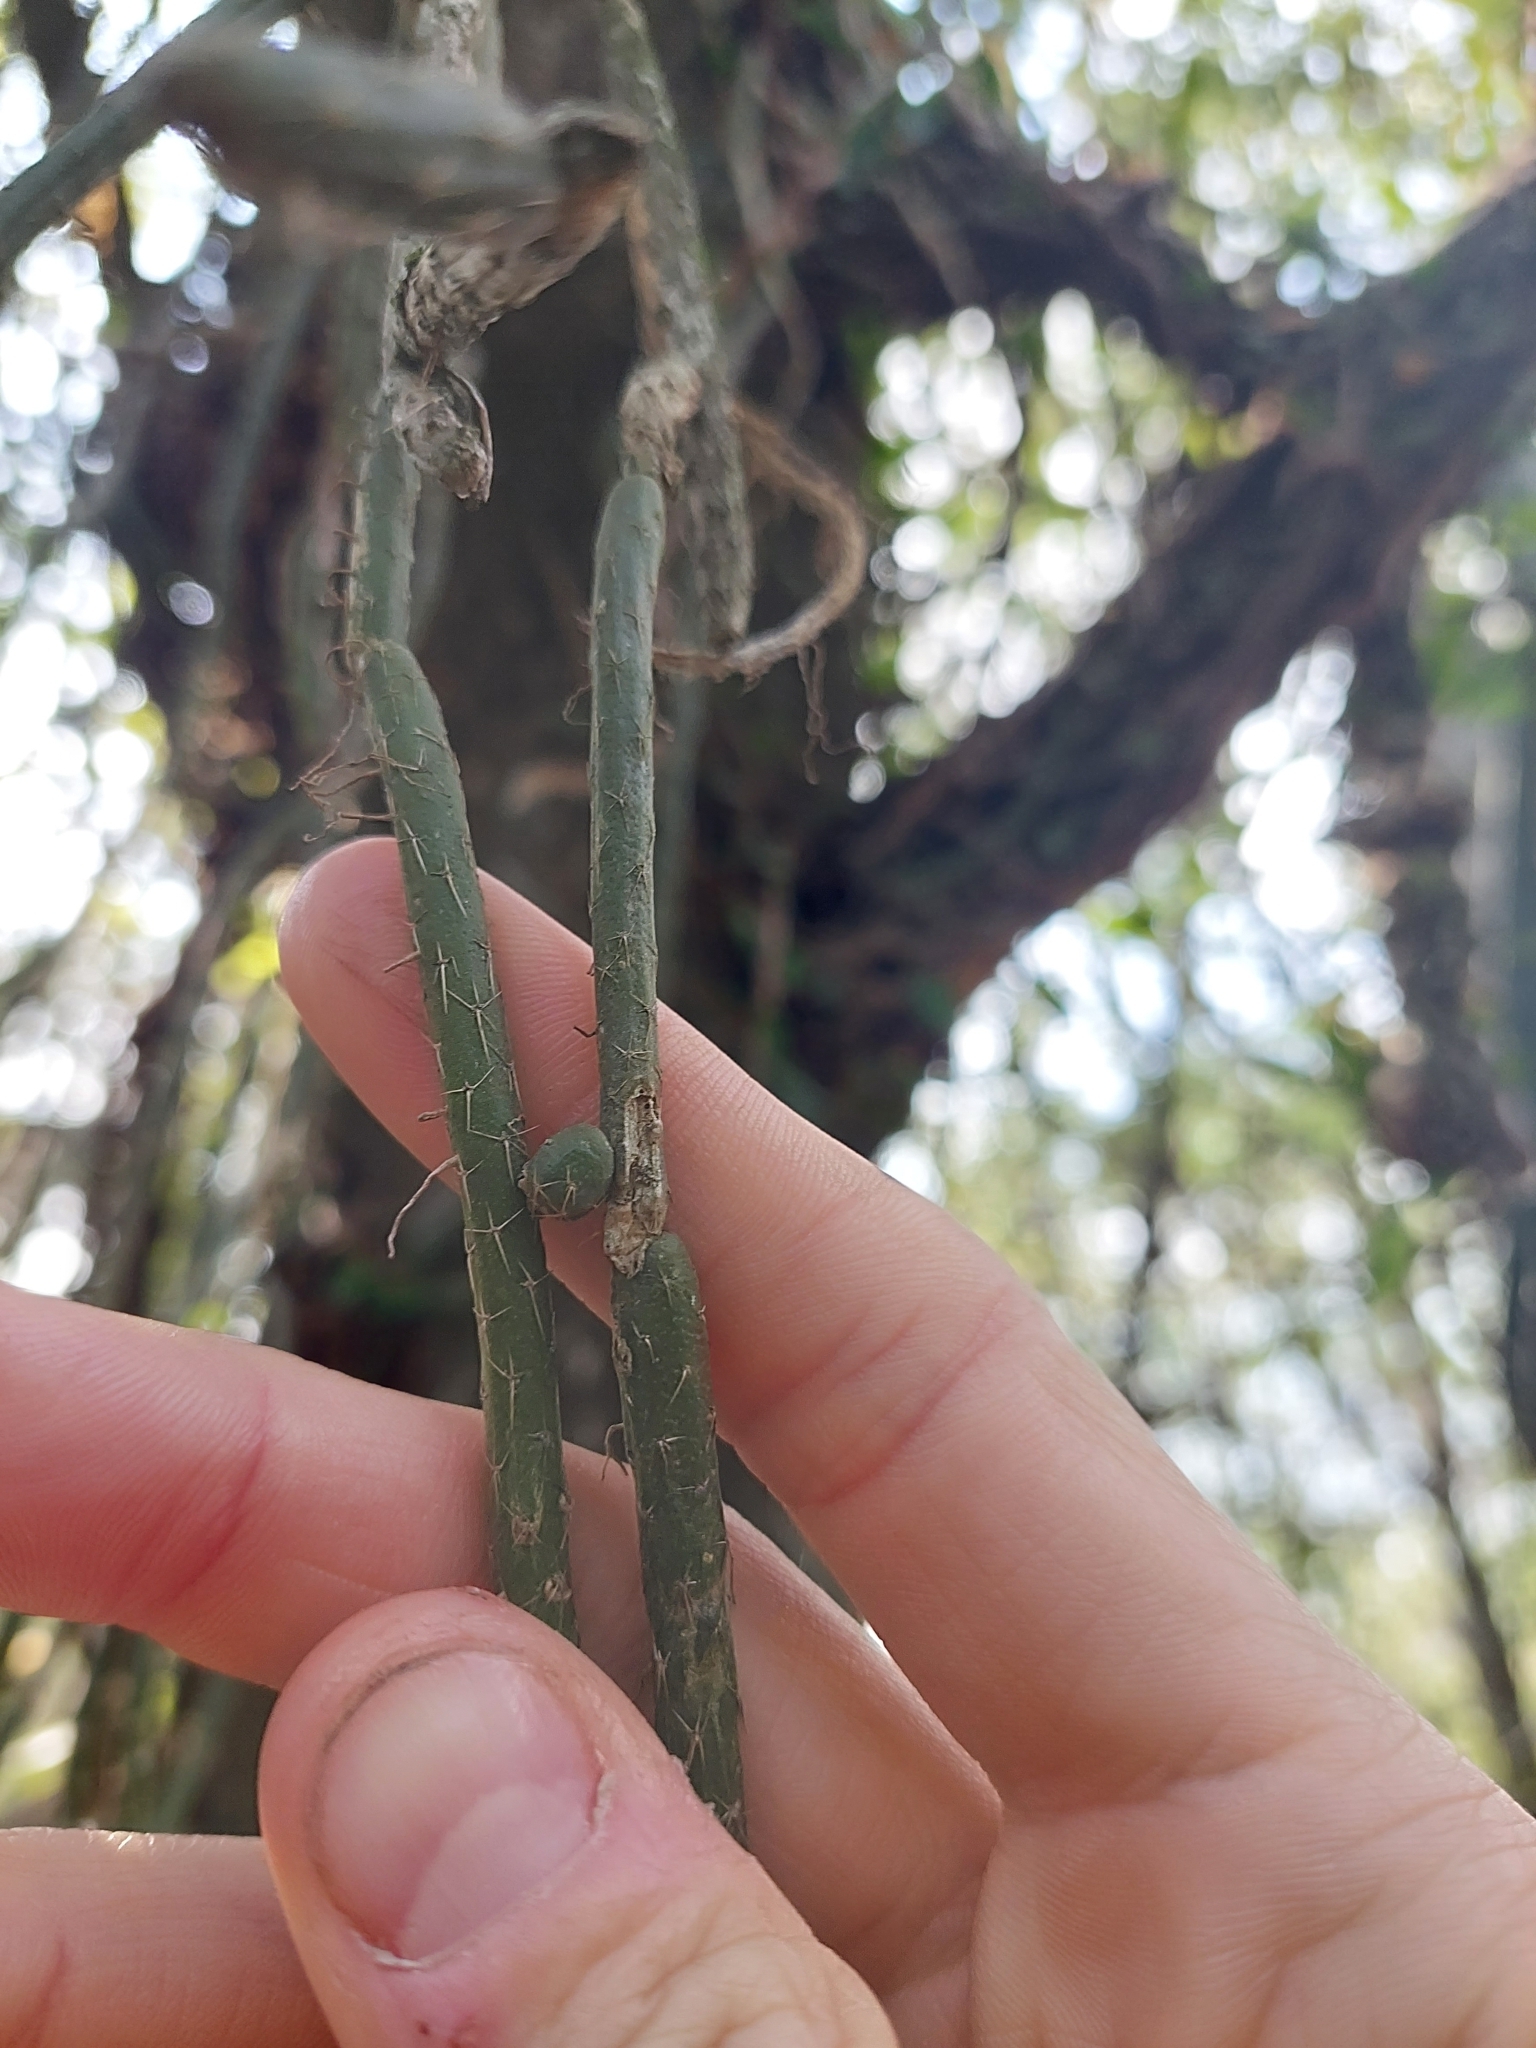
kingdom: Plantae
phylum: Tracheophyta
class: Magnoliopsida
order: Caryophyllales
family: Cactaceae
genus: Lepismium
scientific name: Lepismium lumbricoides
